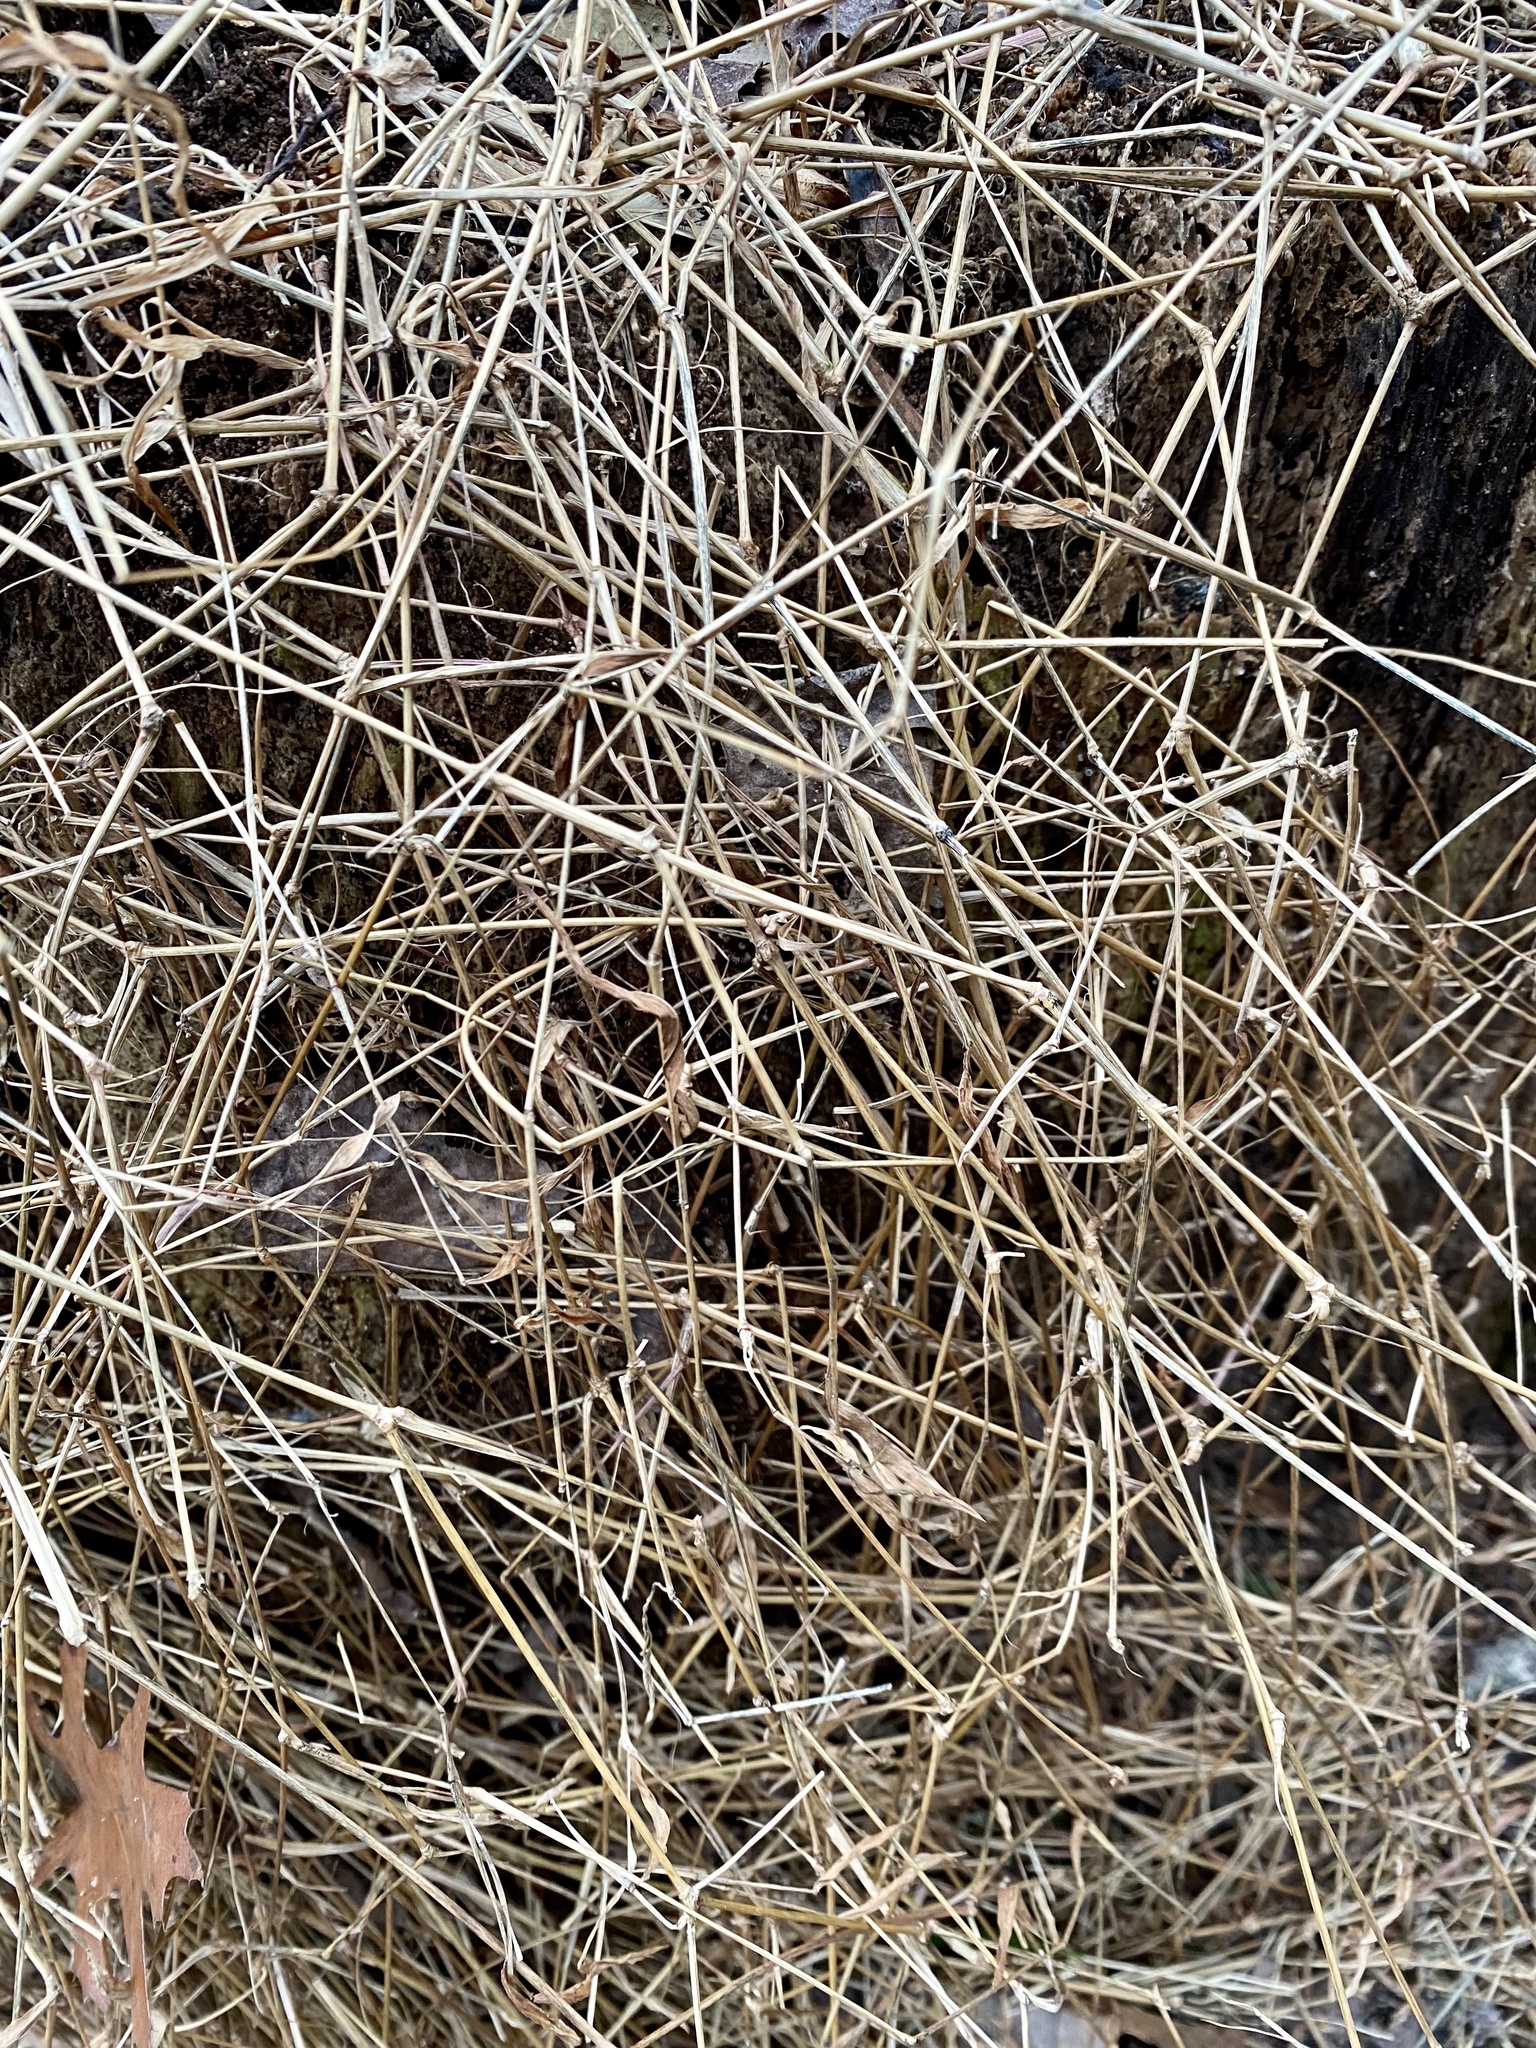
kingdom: Plantae
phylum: Tracheophyta
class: Liliopsida
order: Poales
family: Poaceae
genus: Microstegium
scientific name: Microstegium vimineum
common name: Japanese stiltgrass
